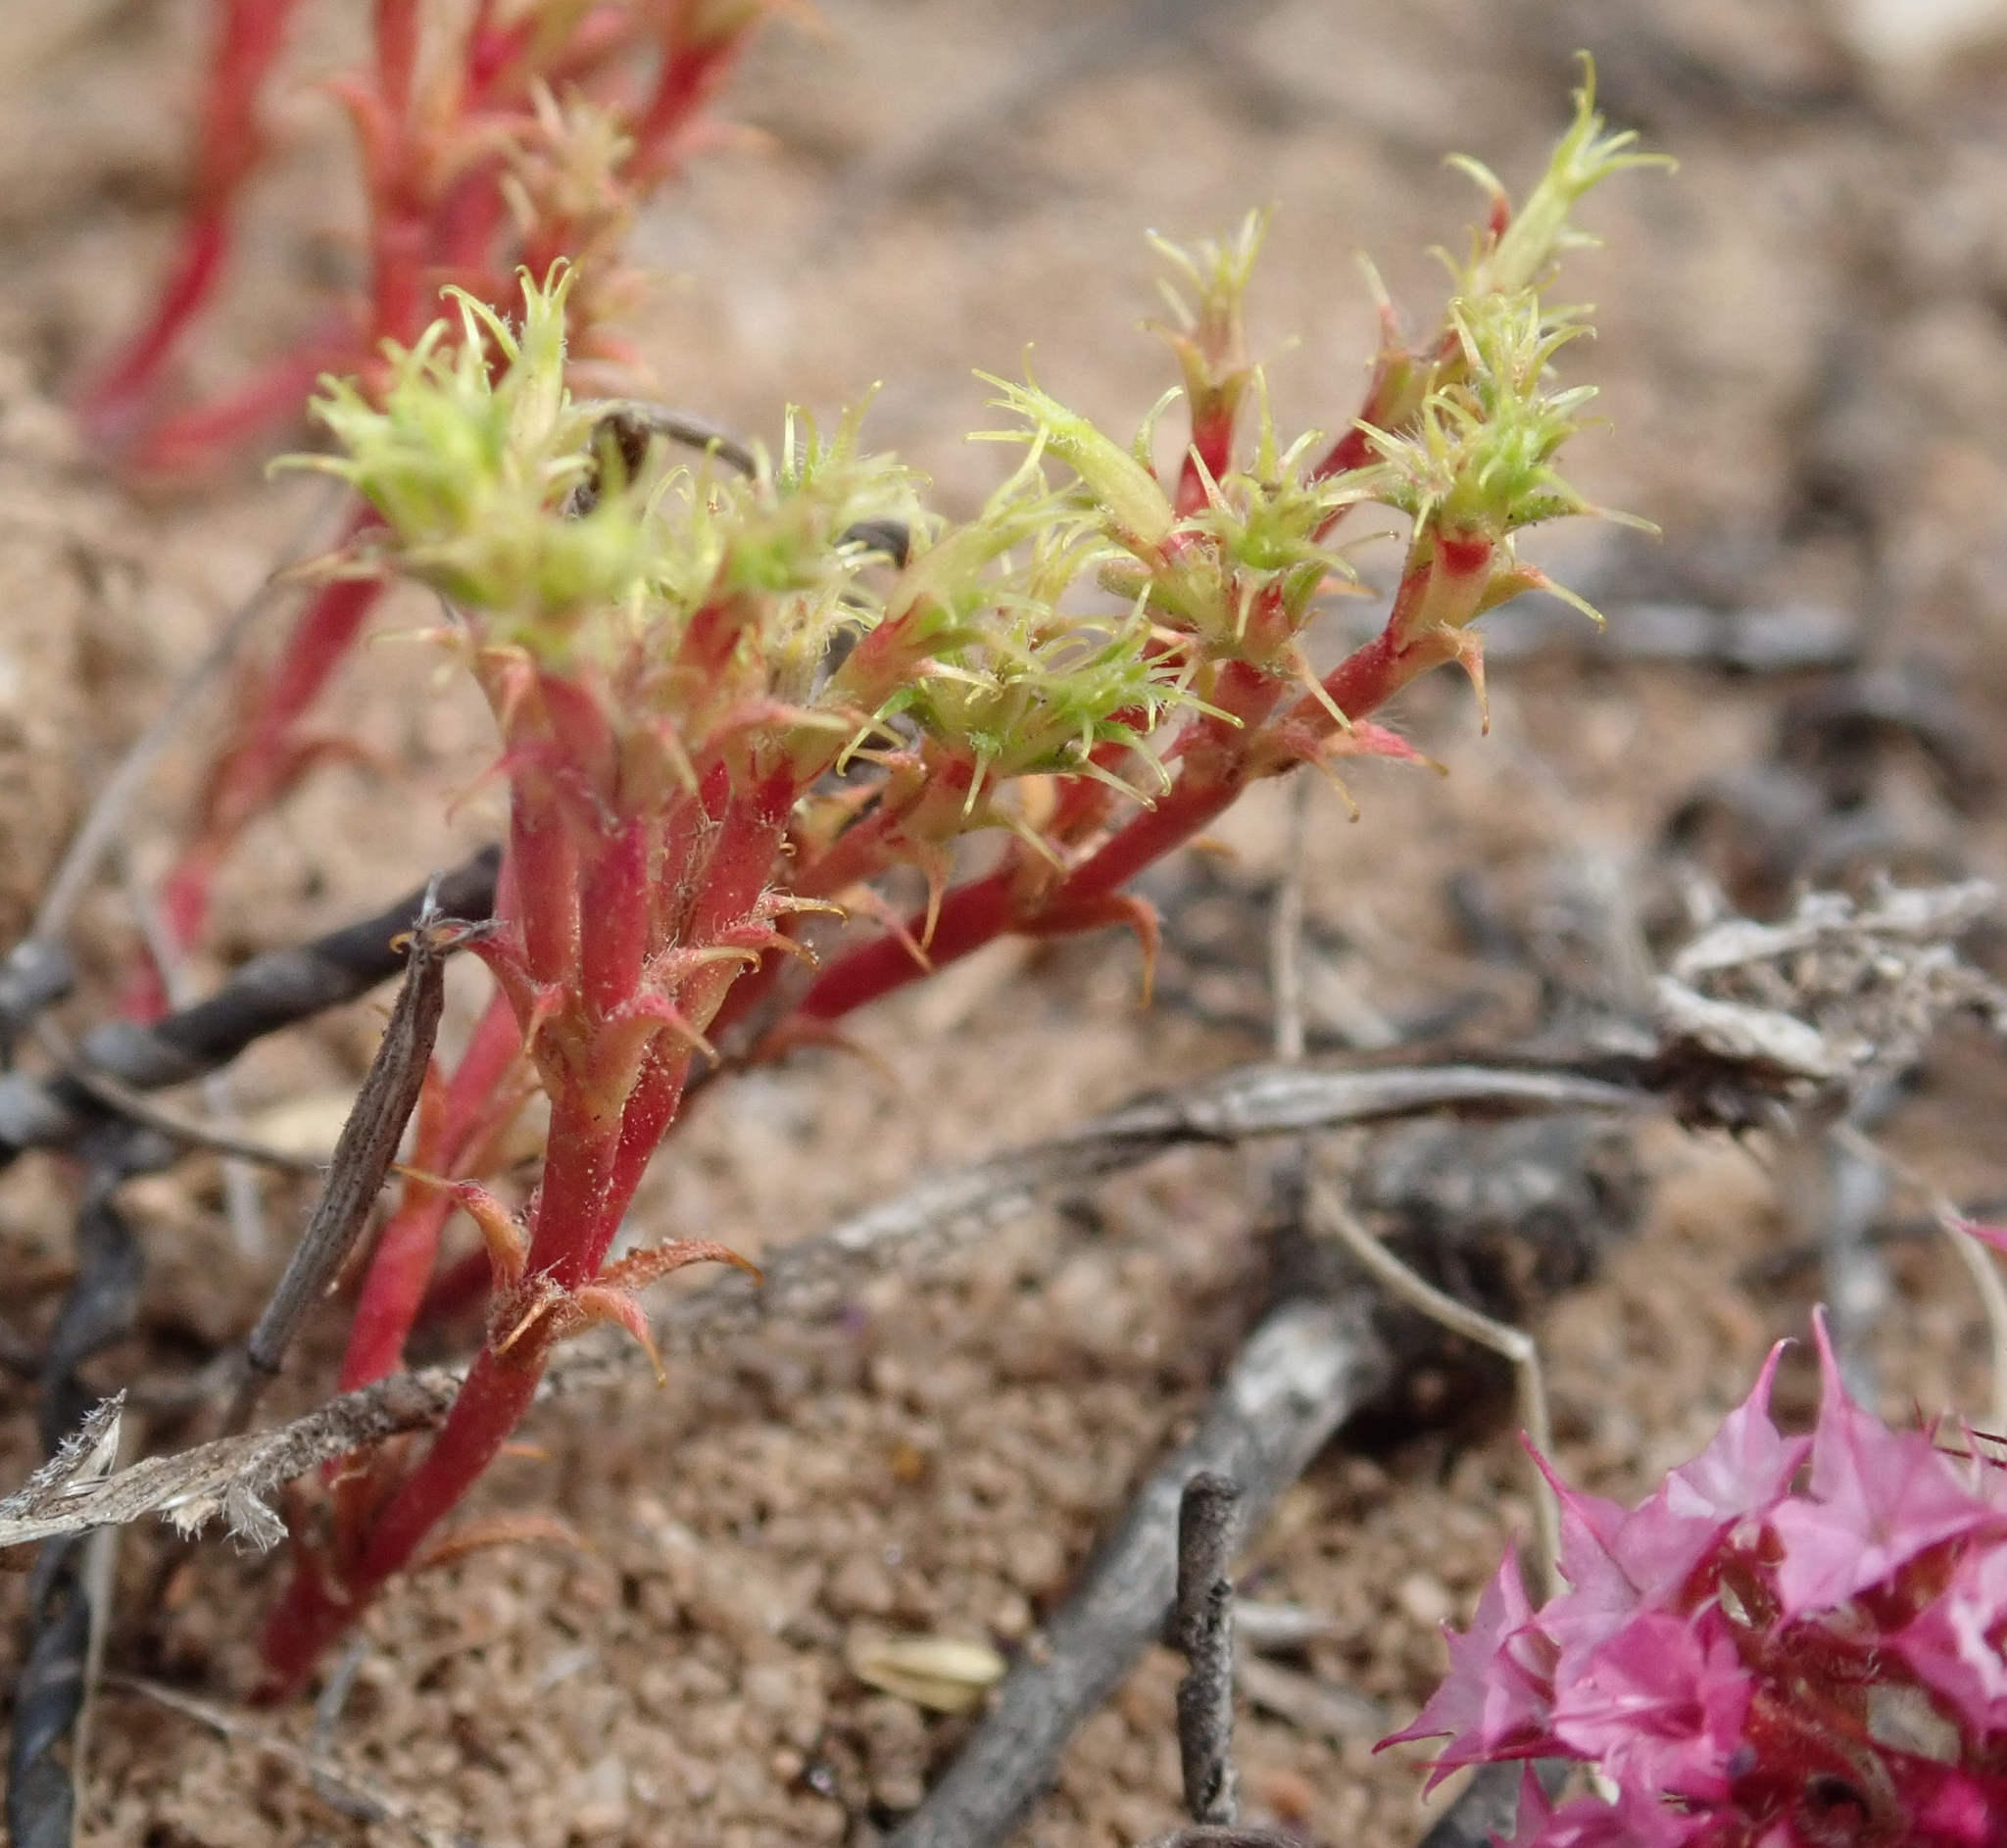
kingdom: Plantae
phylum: Tracheophyta
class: Magnoliopsida
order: Caryophyllales
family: Polygonaceae
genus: Lastarriaea
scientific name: Lastarriaea coriacea
